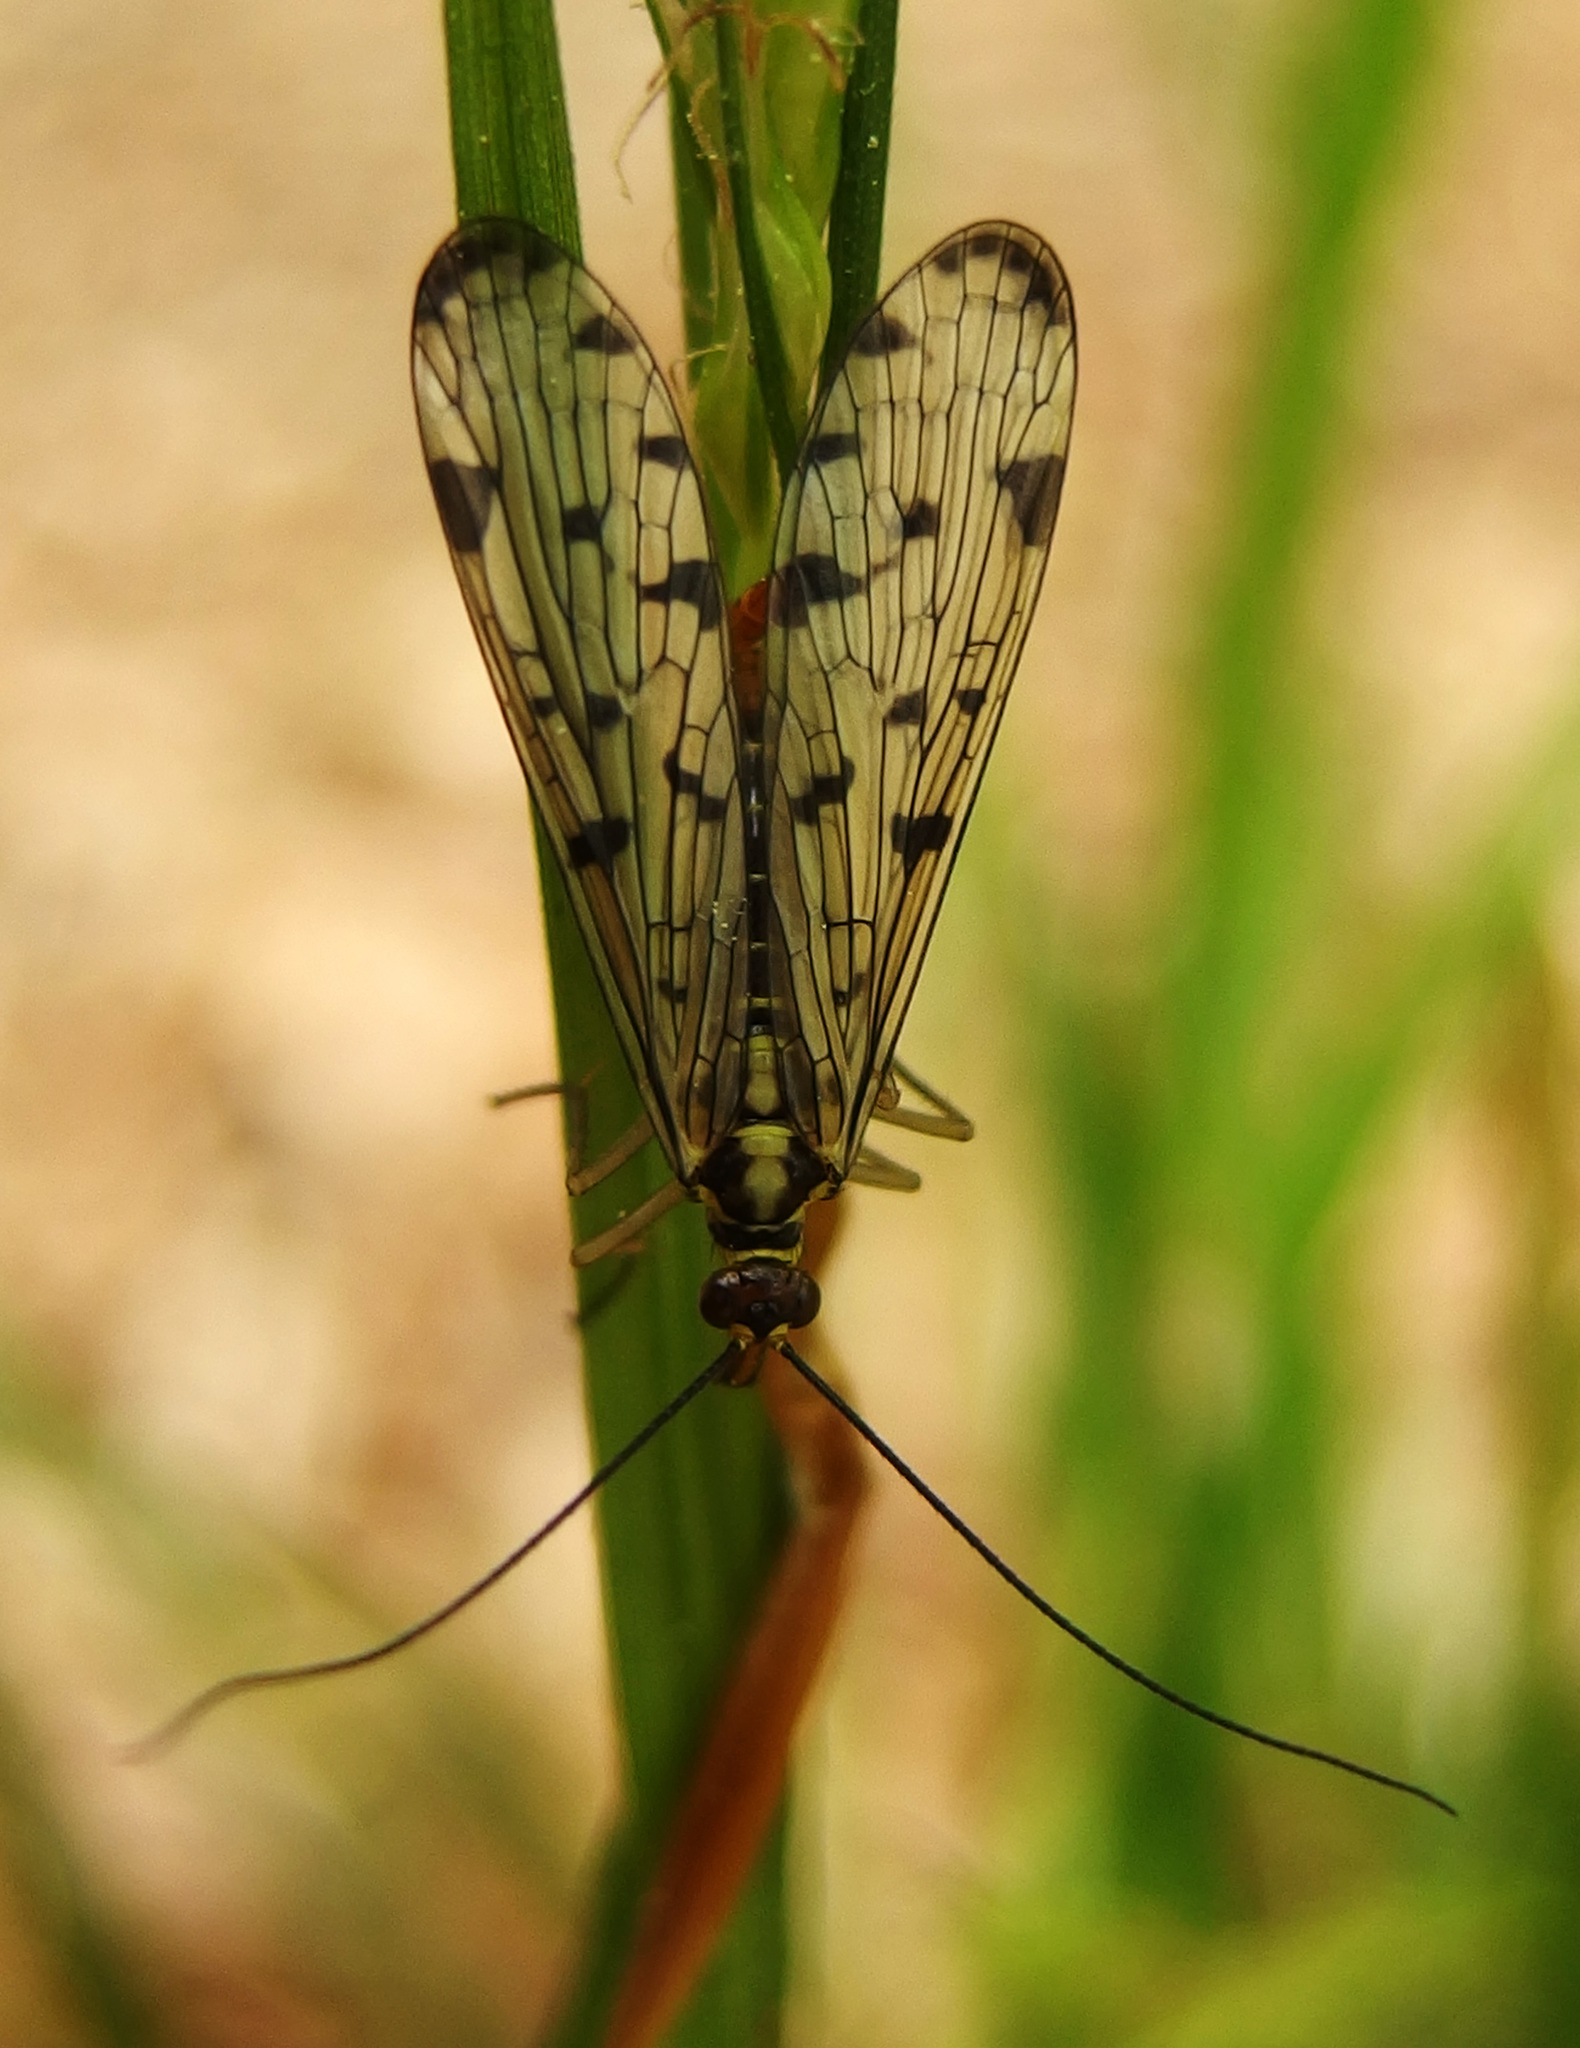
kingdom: Animalia
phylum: Arthropoda
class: Insecta
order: Mecoptera
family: Panorpidae
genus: Panorpa
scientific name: Panorpa germanica
